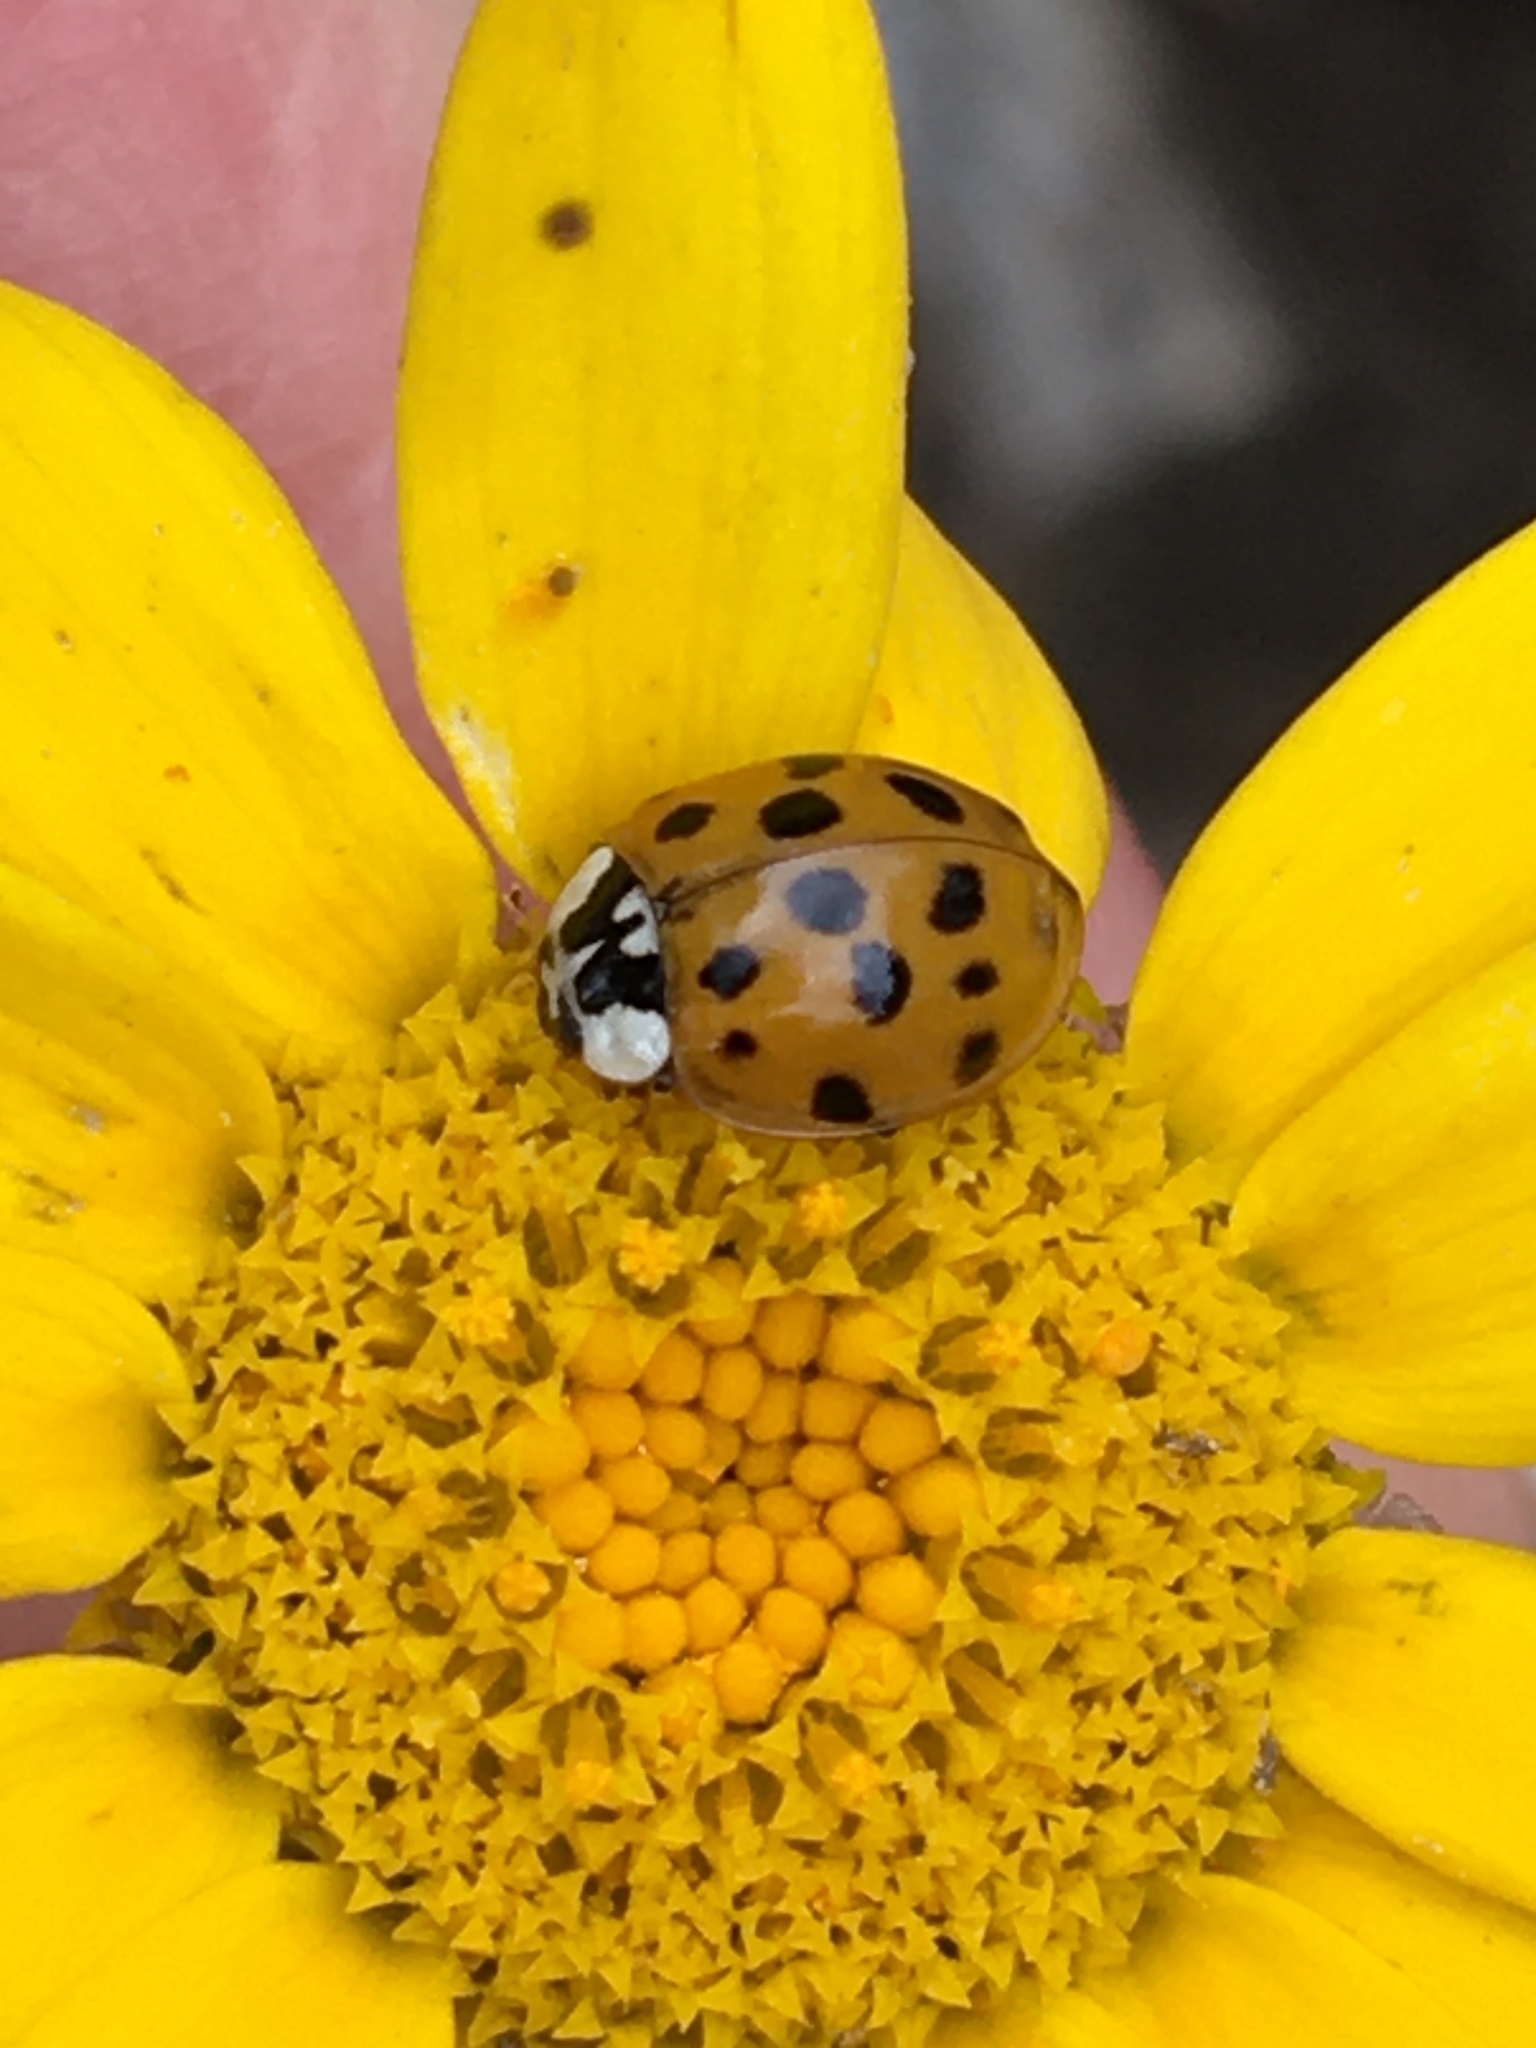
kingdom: Animalia
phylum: Arthropoda
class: Insecta
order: Coleoptera
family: Coccinellidae
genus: Harmonia
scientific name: Harmonia axyridis
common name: Harlequin ladybird
